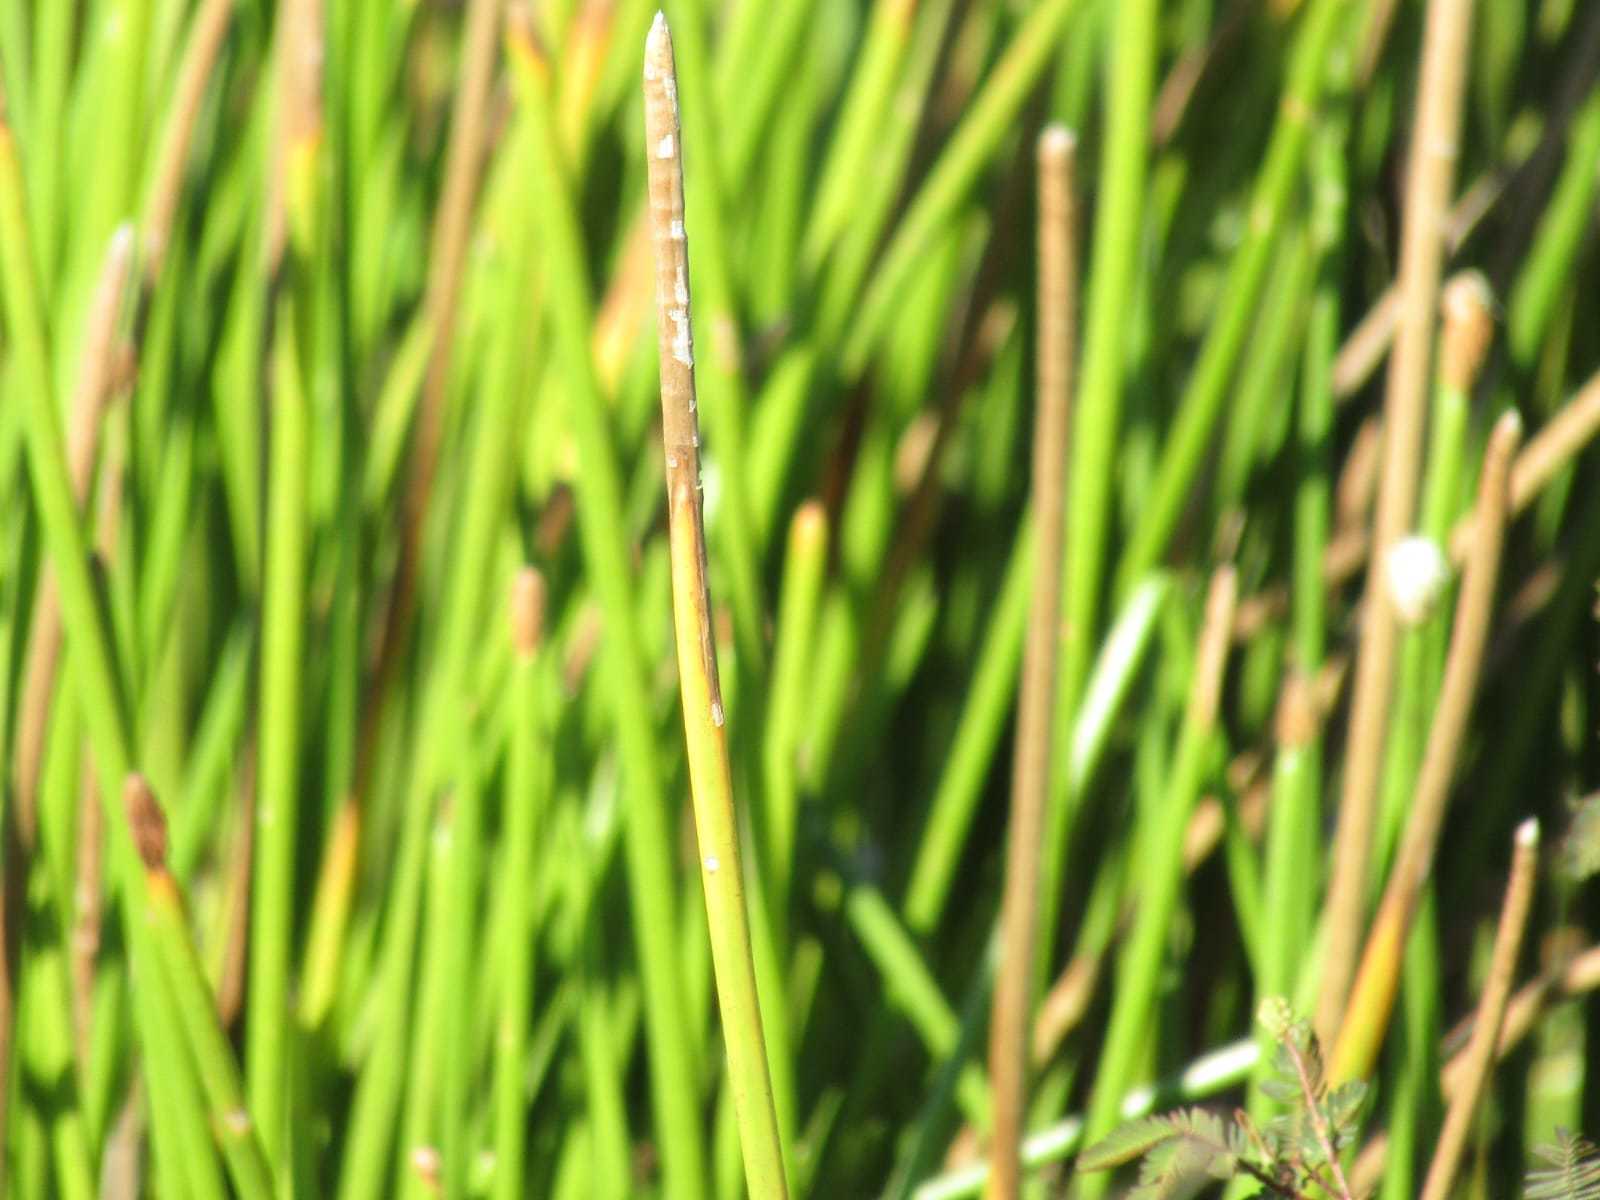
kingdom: Plantae
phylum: Tracheophyta
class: Liliopsida
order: Poales
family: Cyperaceae
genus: Eleocharis
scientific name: Eleocharis elegans
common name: Elegant spike-rush
